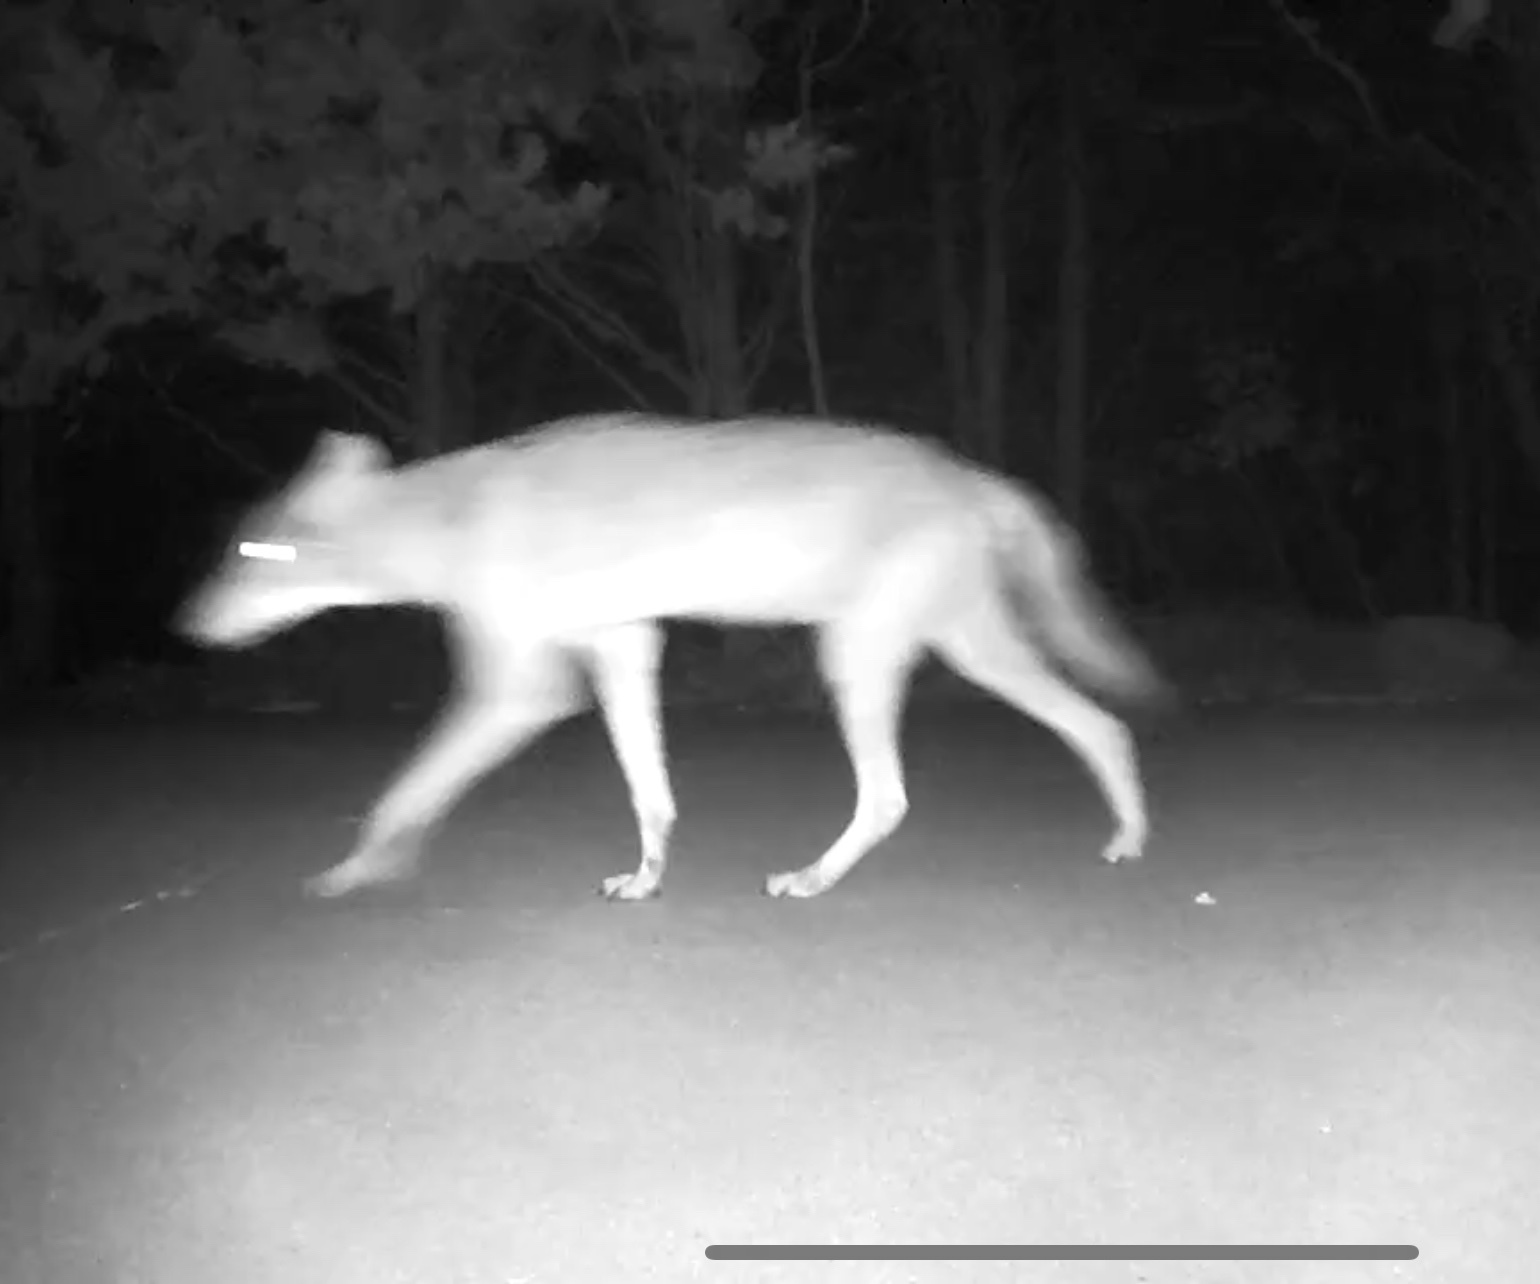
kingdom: Animalia
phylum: Chordata
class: Mammalia
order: Carnivora
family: Canidae
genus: Canis
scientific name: Canis latrans
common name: Coyote
